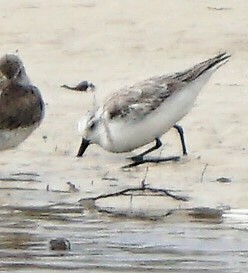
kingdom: Animalia
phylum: Chordata
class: Aves
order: Charadriiformes
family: Scolopacidae
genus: Calidris
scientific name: Calidris alba
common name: Sanderling
